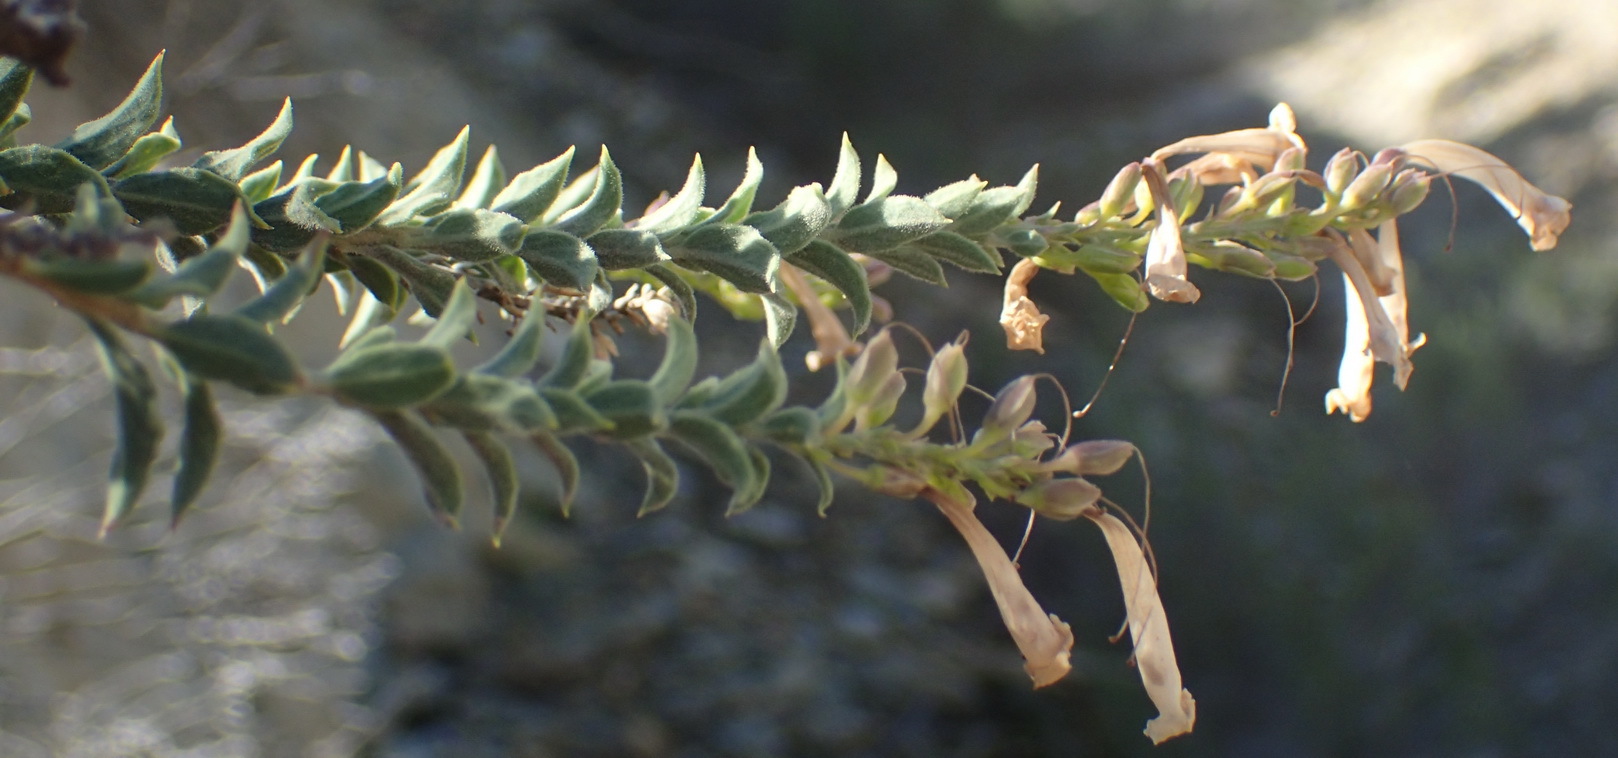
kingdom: Plantae
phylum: Tracheophyta
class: Magnoliopsida
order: Lamiales
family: Scrophulariaceae
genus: Freylinia
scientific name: Freylinia vlokii
